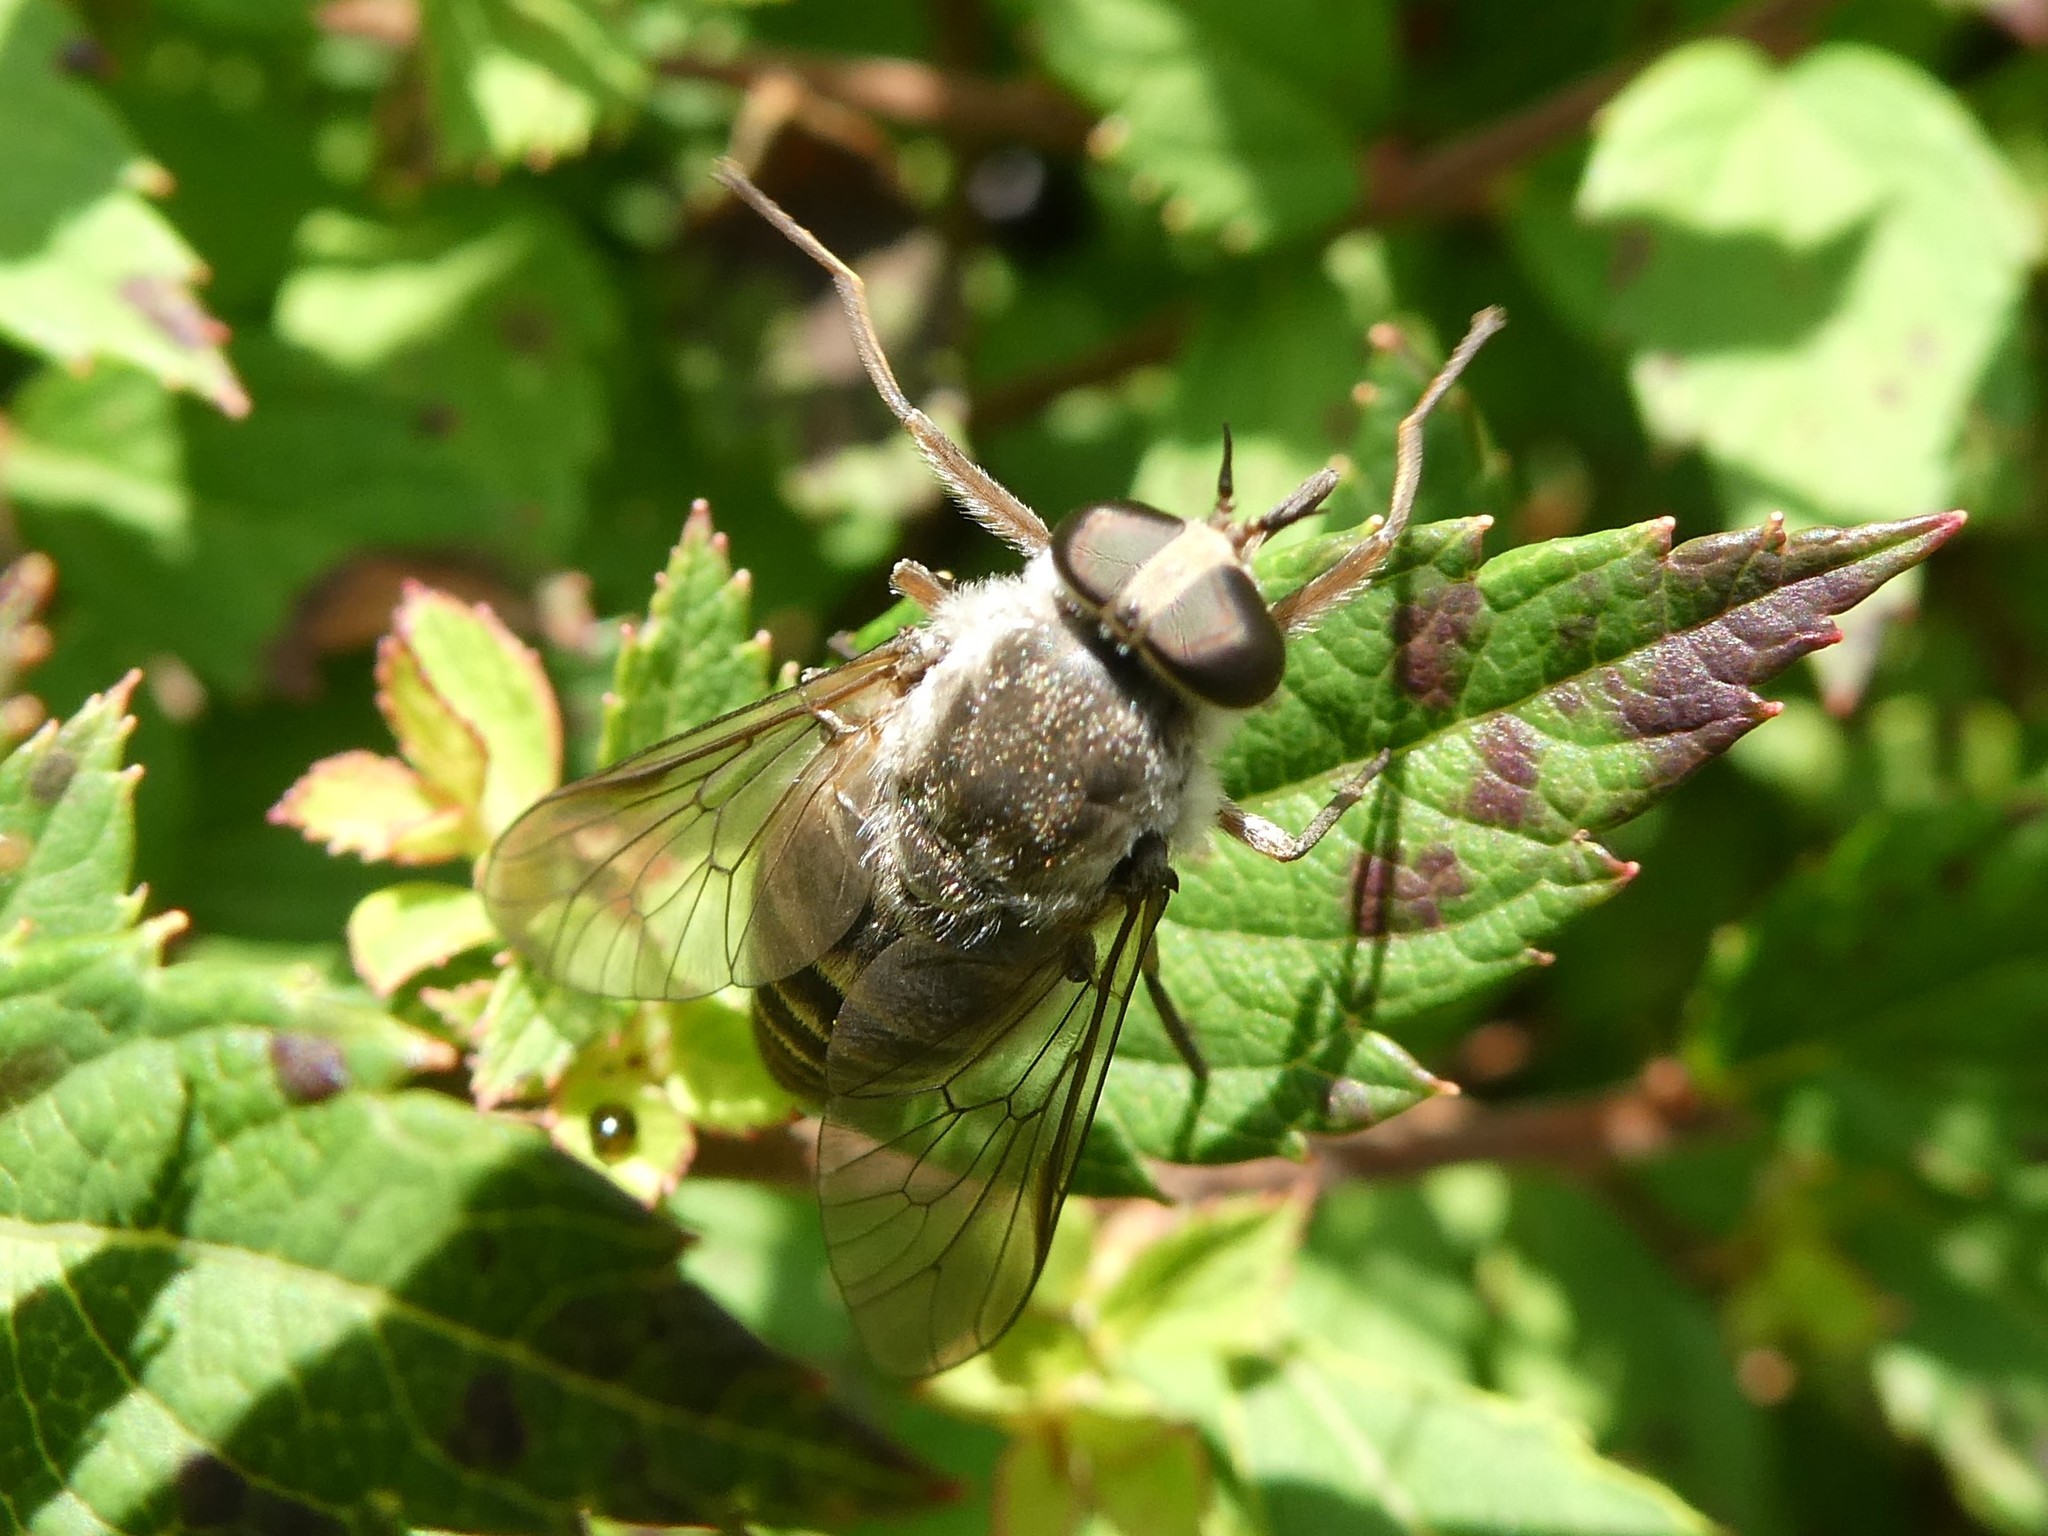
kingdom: Animalia
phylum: Arthropoda
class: Insecta
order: Diptera
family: Tabanidae
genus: Stonemyia
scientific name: Stonemyia rasa
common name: Shaved horse fly
